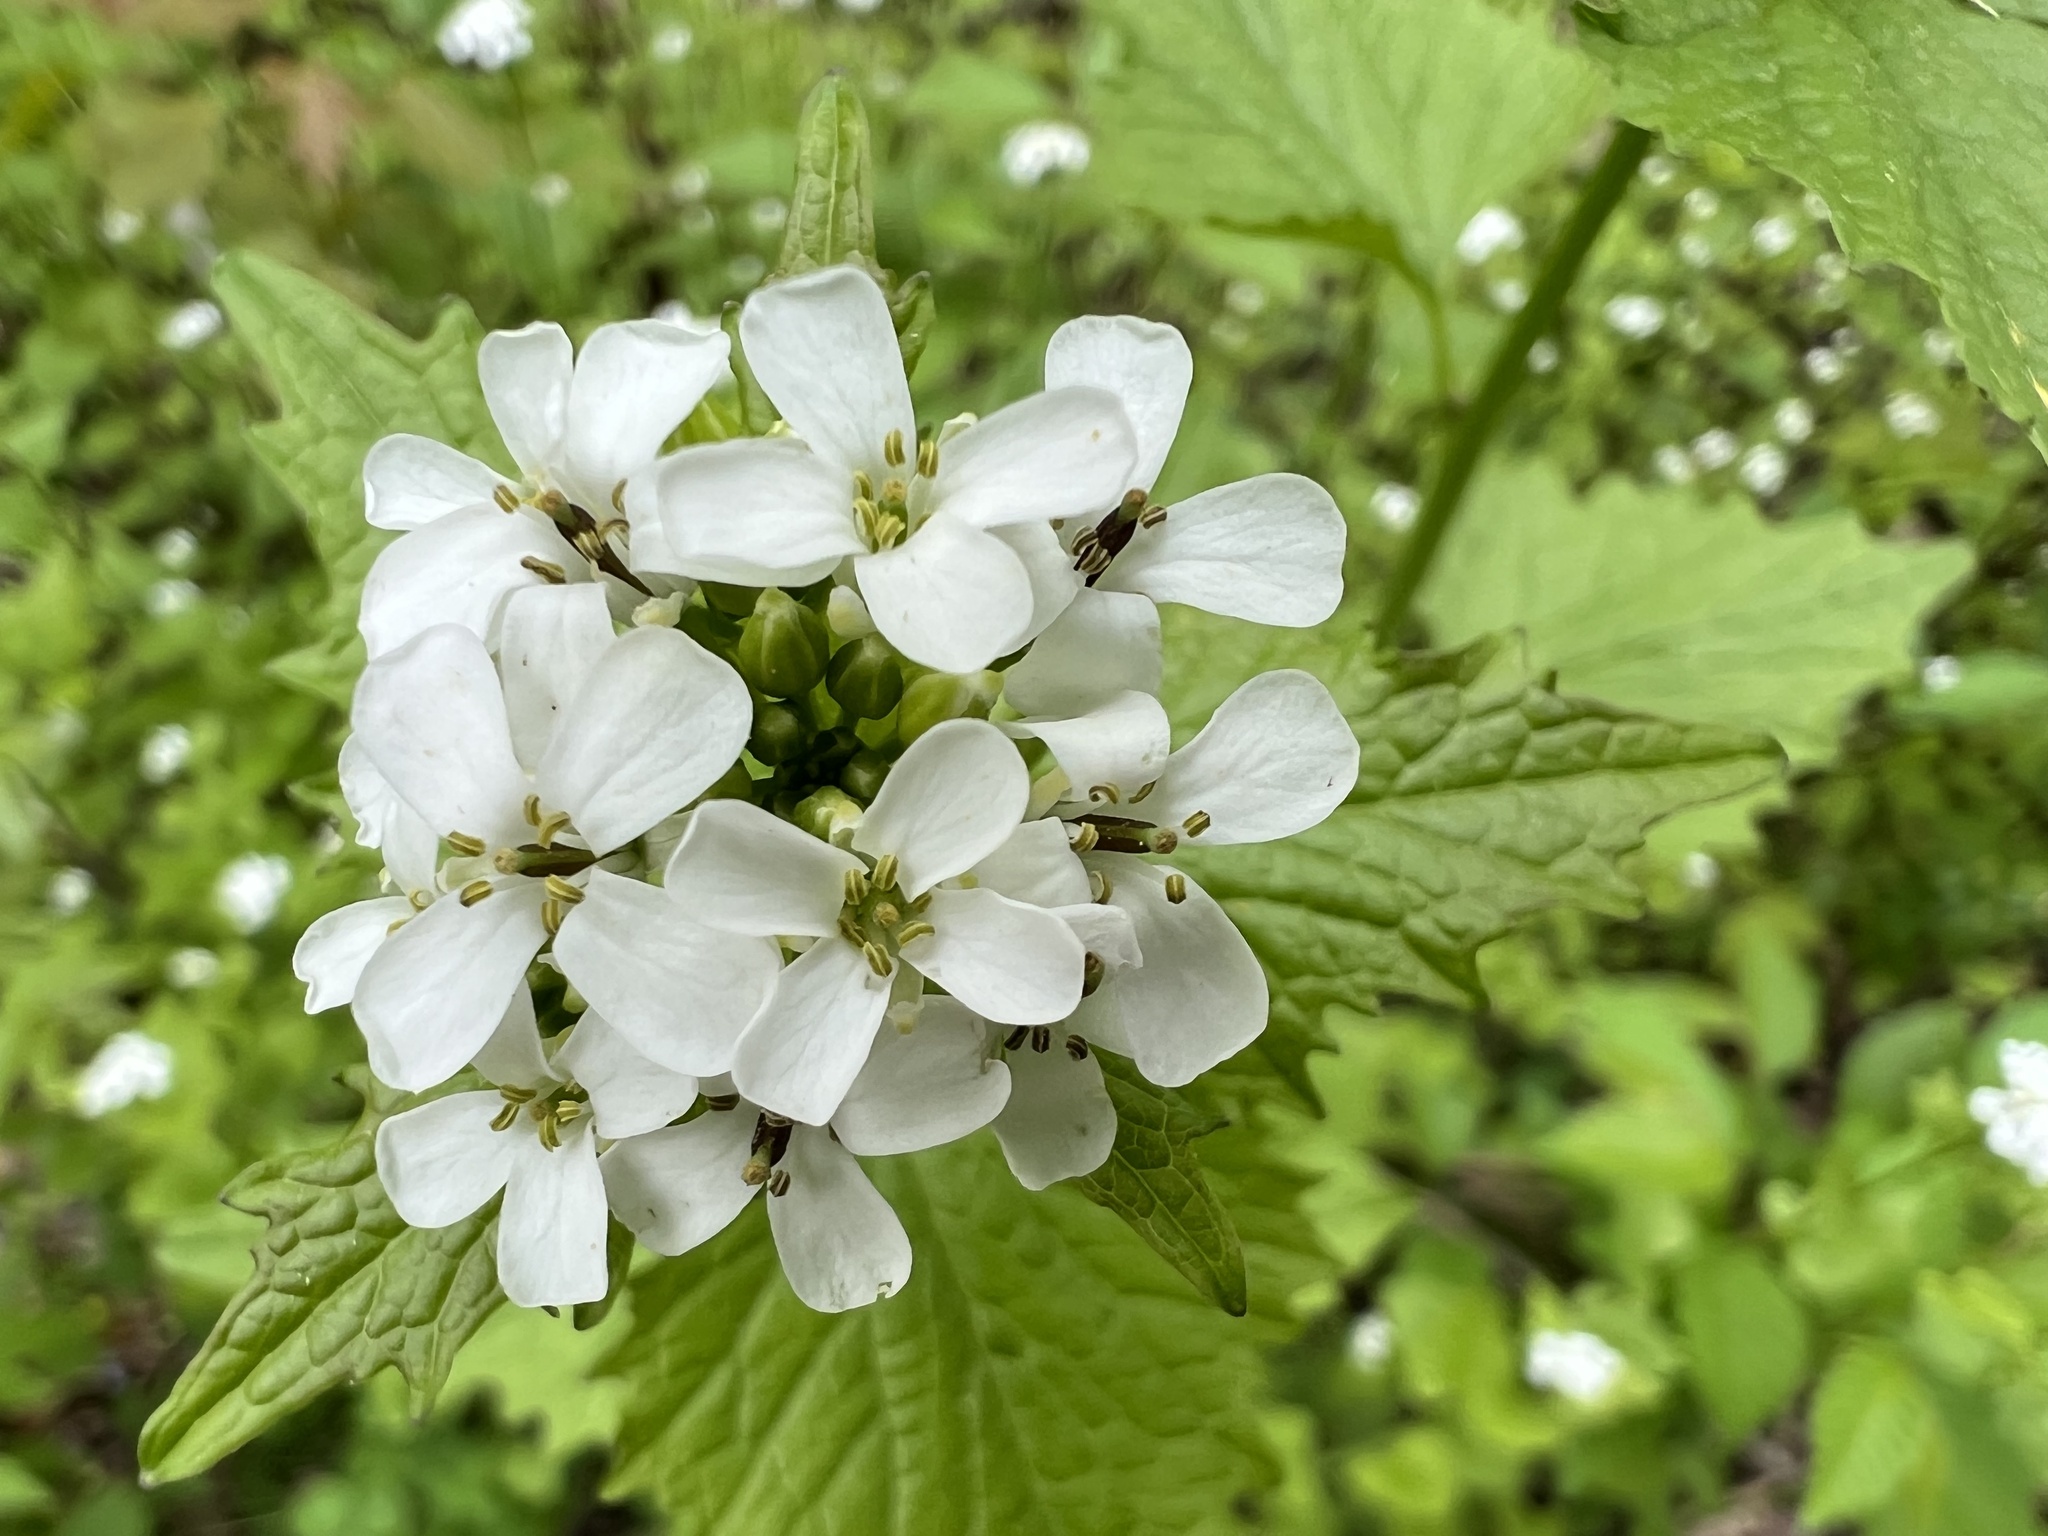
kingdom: Plantae
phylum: Tracheophyta
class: Magnoliopsida
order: Brassicales
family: Brassicaceae
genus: Alliaria
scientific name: Alliaria petiolata
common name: Garlic mustard
